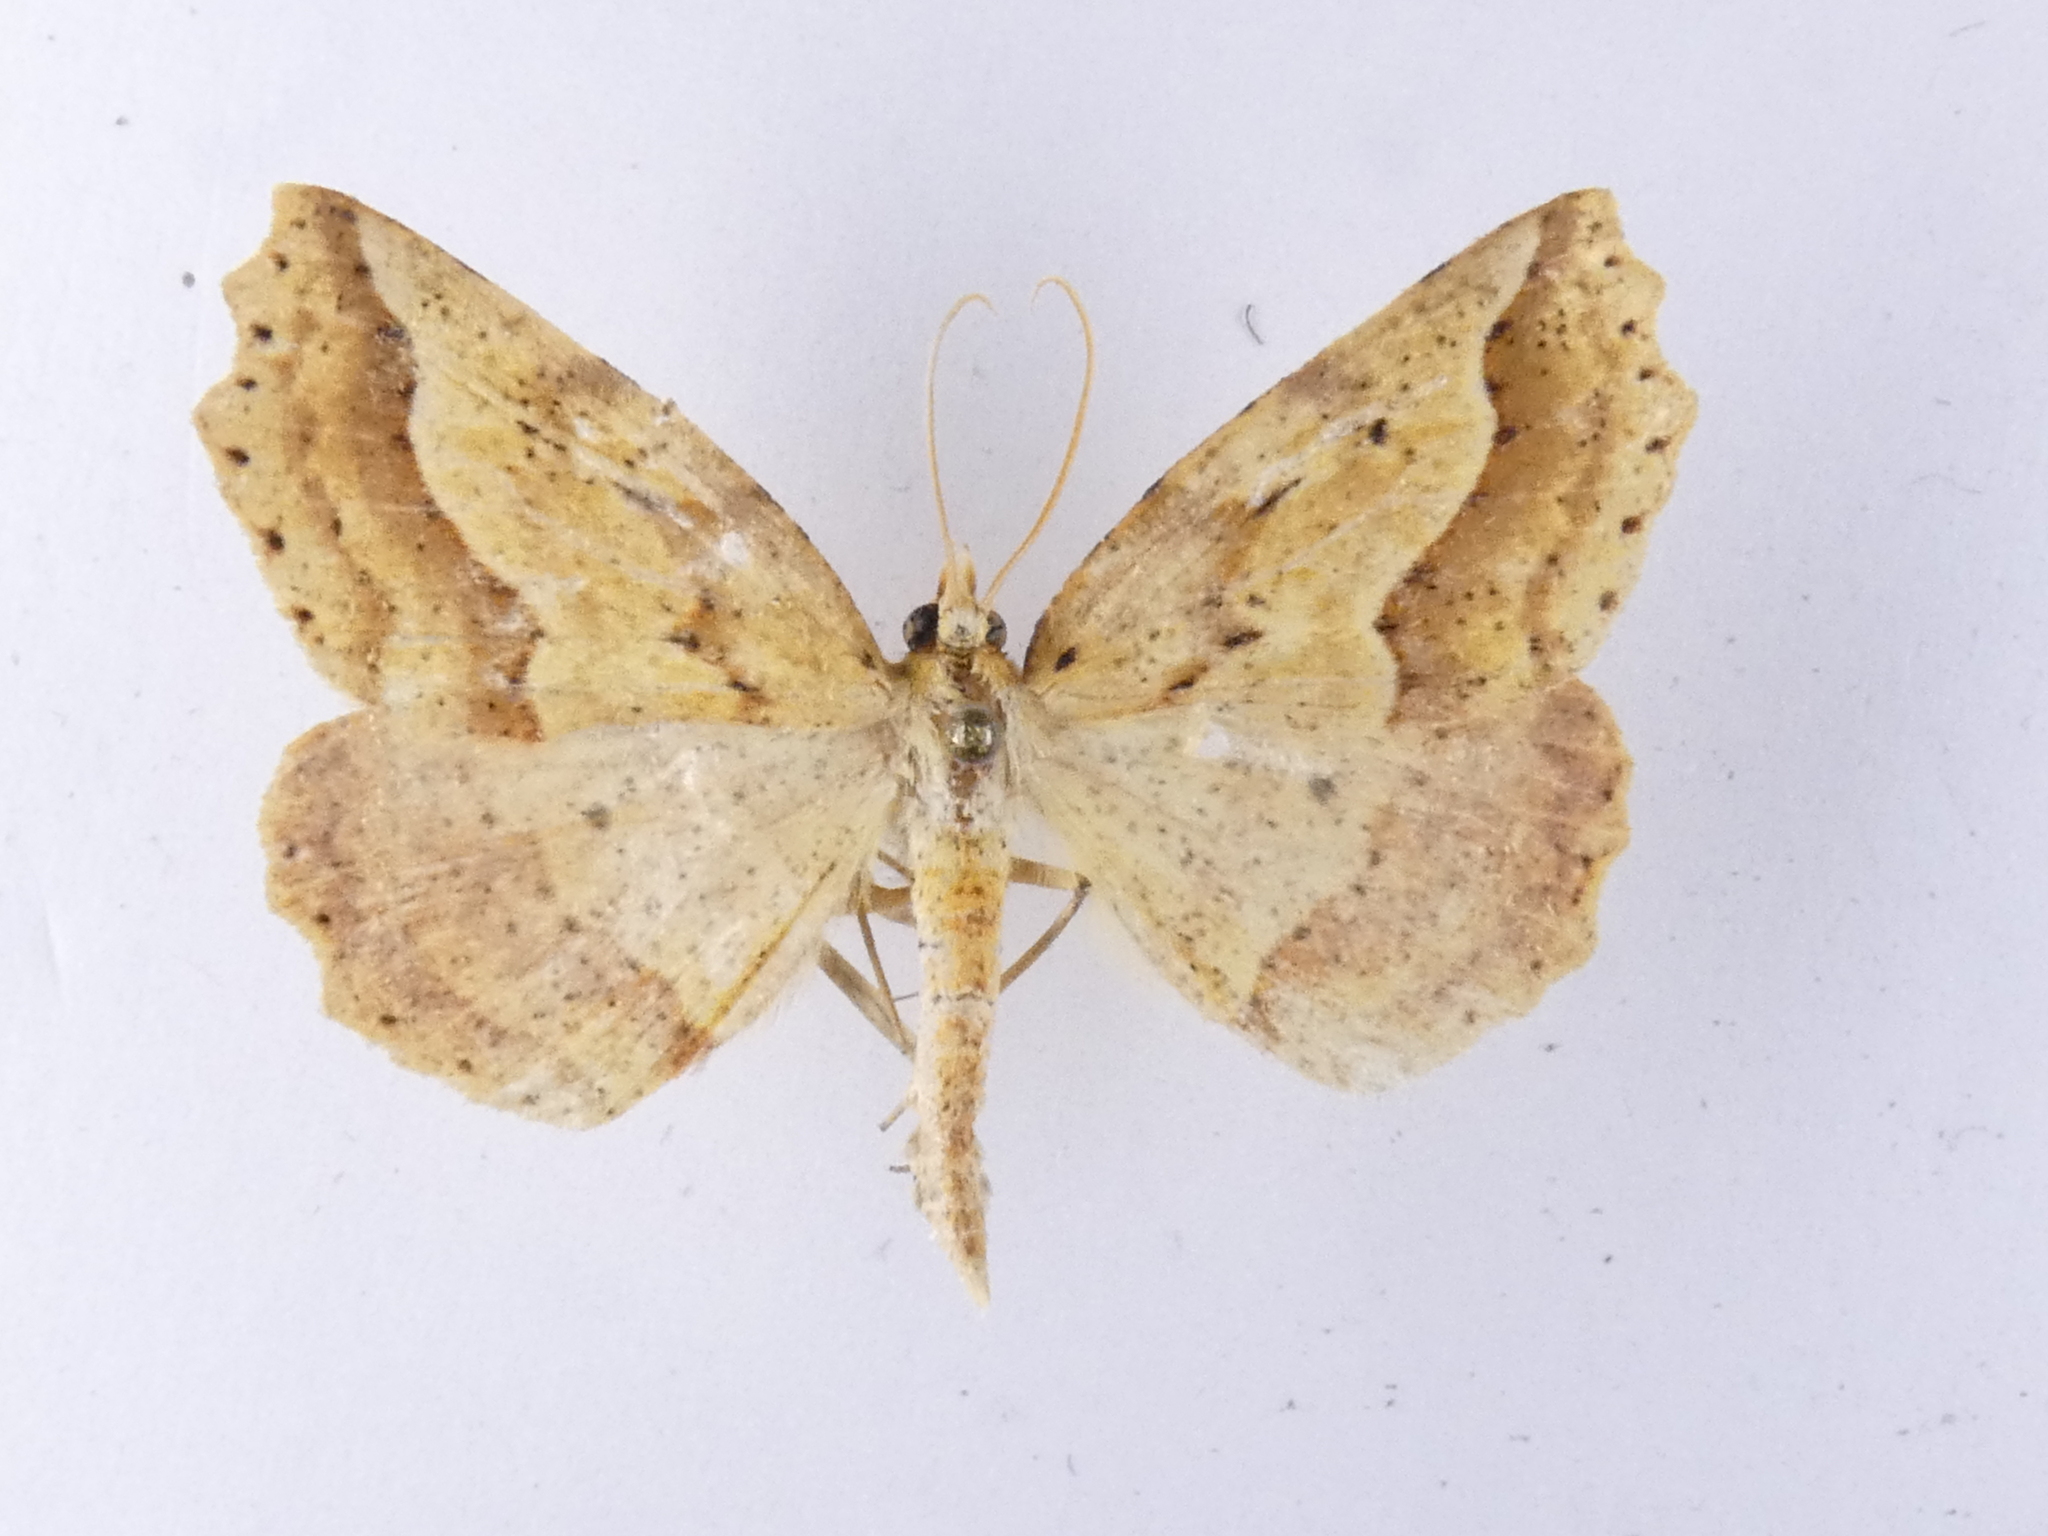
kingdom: Animalia
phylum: Arthropoda
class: Insecta
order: Lepidoptera
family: Geometridae
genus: Ischalis
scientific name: Ischalis variabilis
